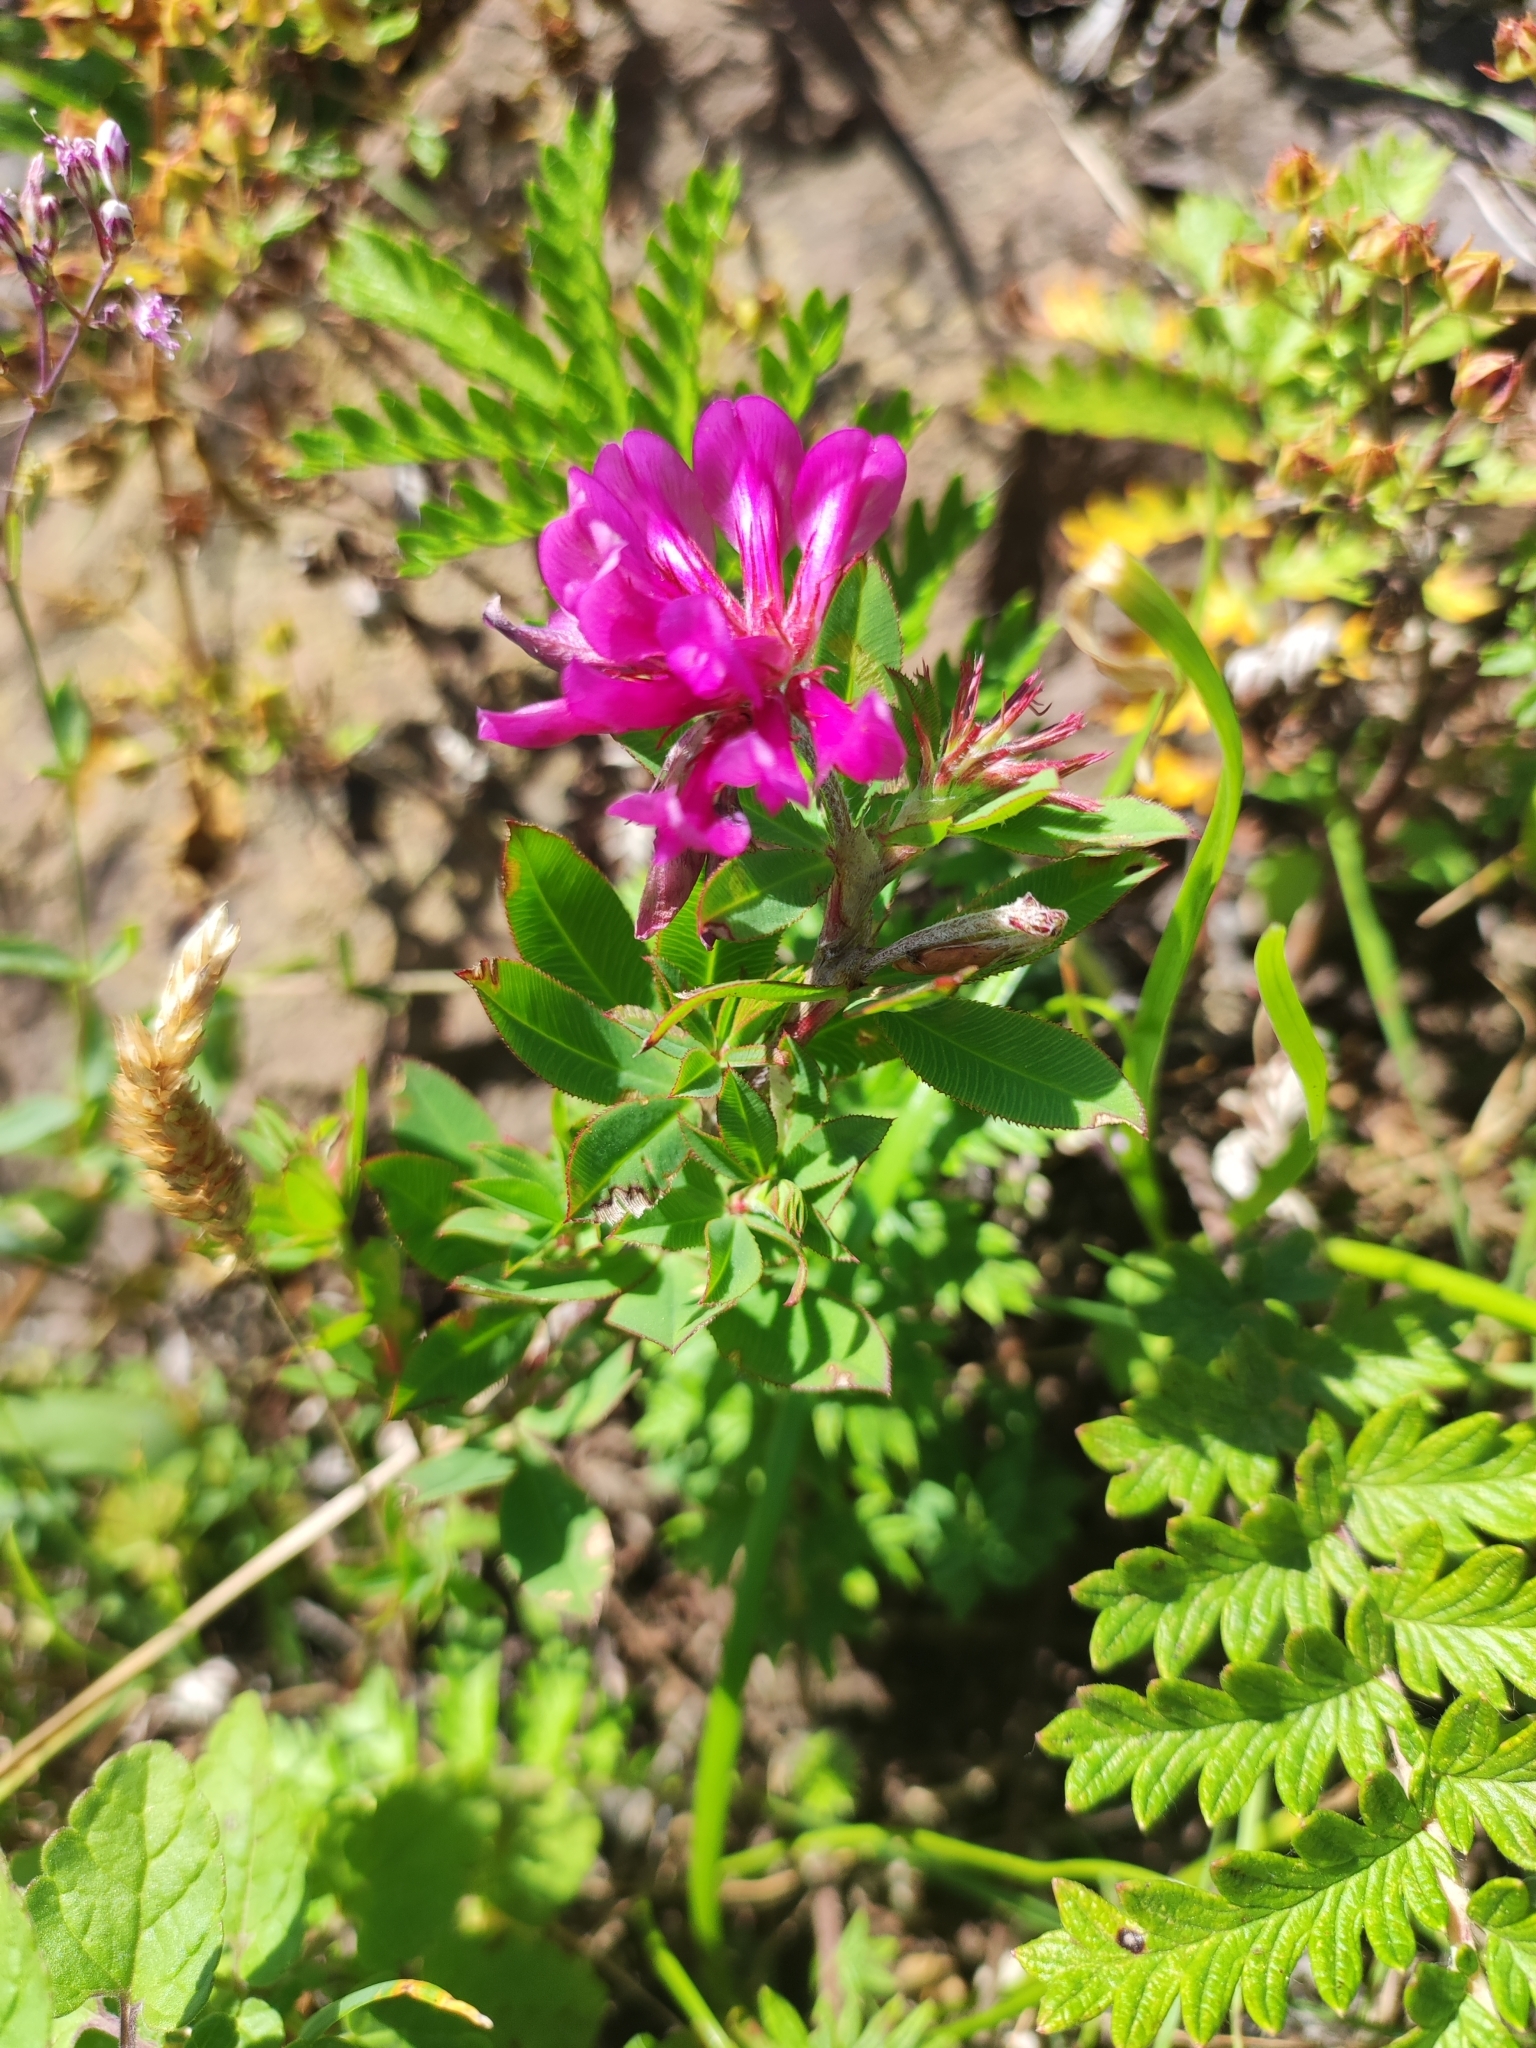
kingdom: Plantae
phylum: Tracheophyta
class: Magnoliopsida
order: Fabales
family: Fabaceae
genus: Trifolium
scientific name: Trifolium lupinaster
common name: Lupine clover
